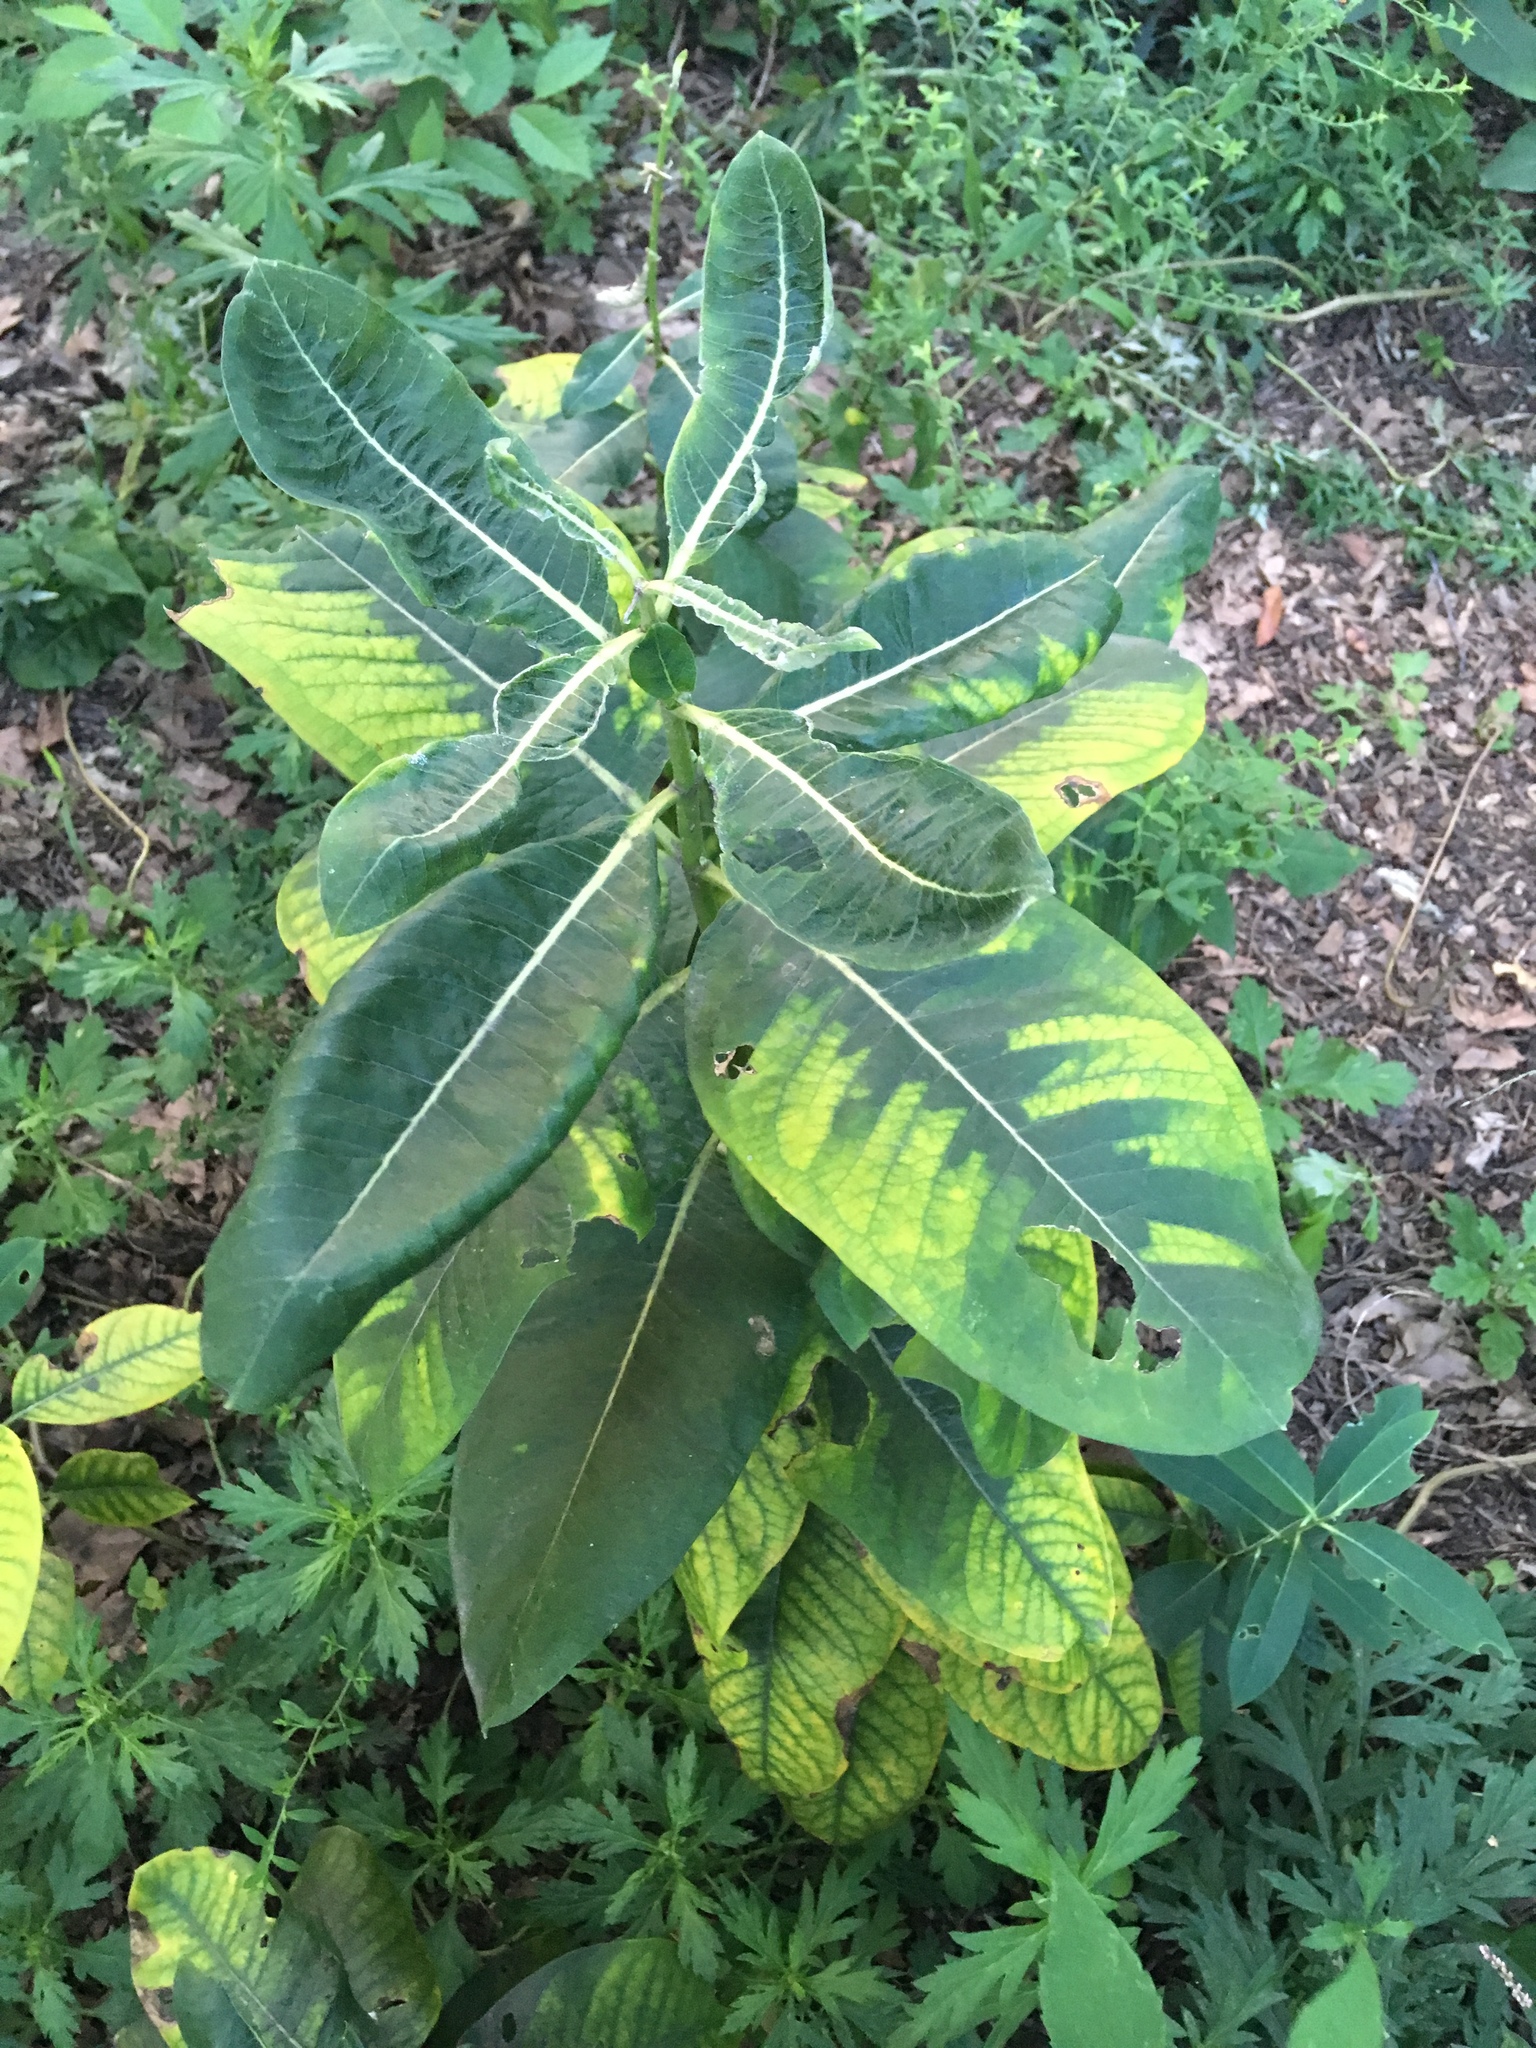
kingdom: Plantae
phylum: Tracheophyta
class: Magnoliopsida
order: Gentianales
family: Apocynaceae
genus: Asclepias
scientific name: Asclepias syriaca
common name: Common milkweed
